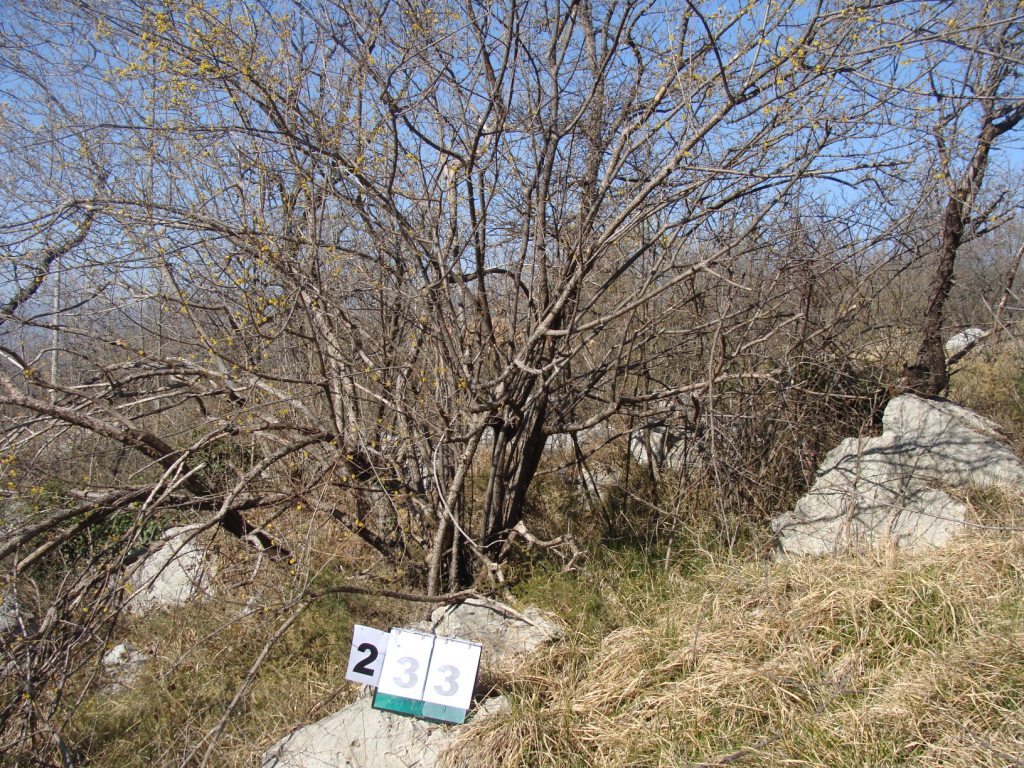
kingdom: Plantae
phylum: Tracheophyta
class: Magnoliopsida
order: Cornales
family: Cornaceae
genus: Cornus
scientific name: Cornus mas
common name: Cornelian-cherry
